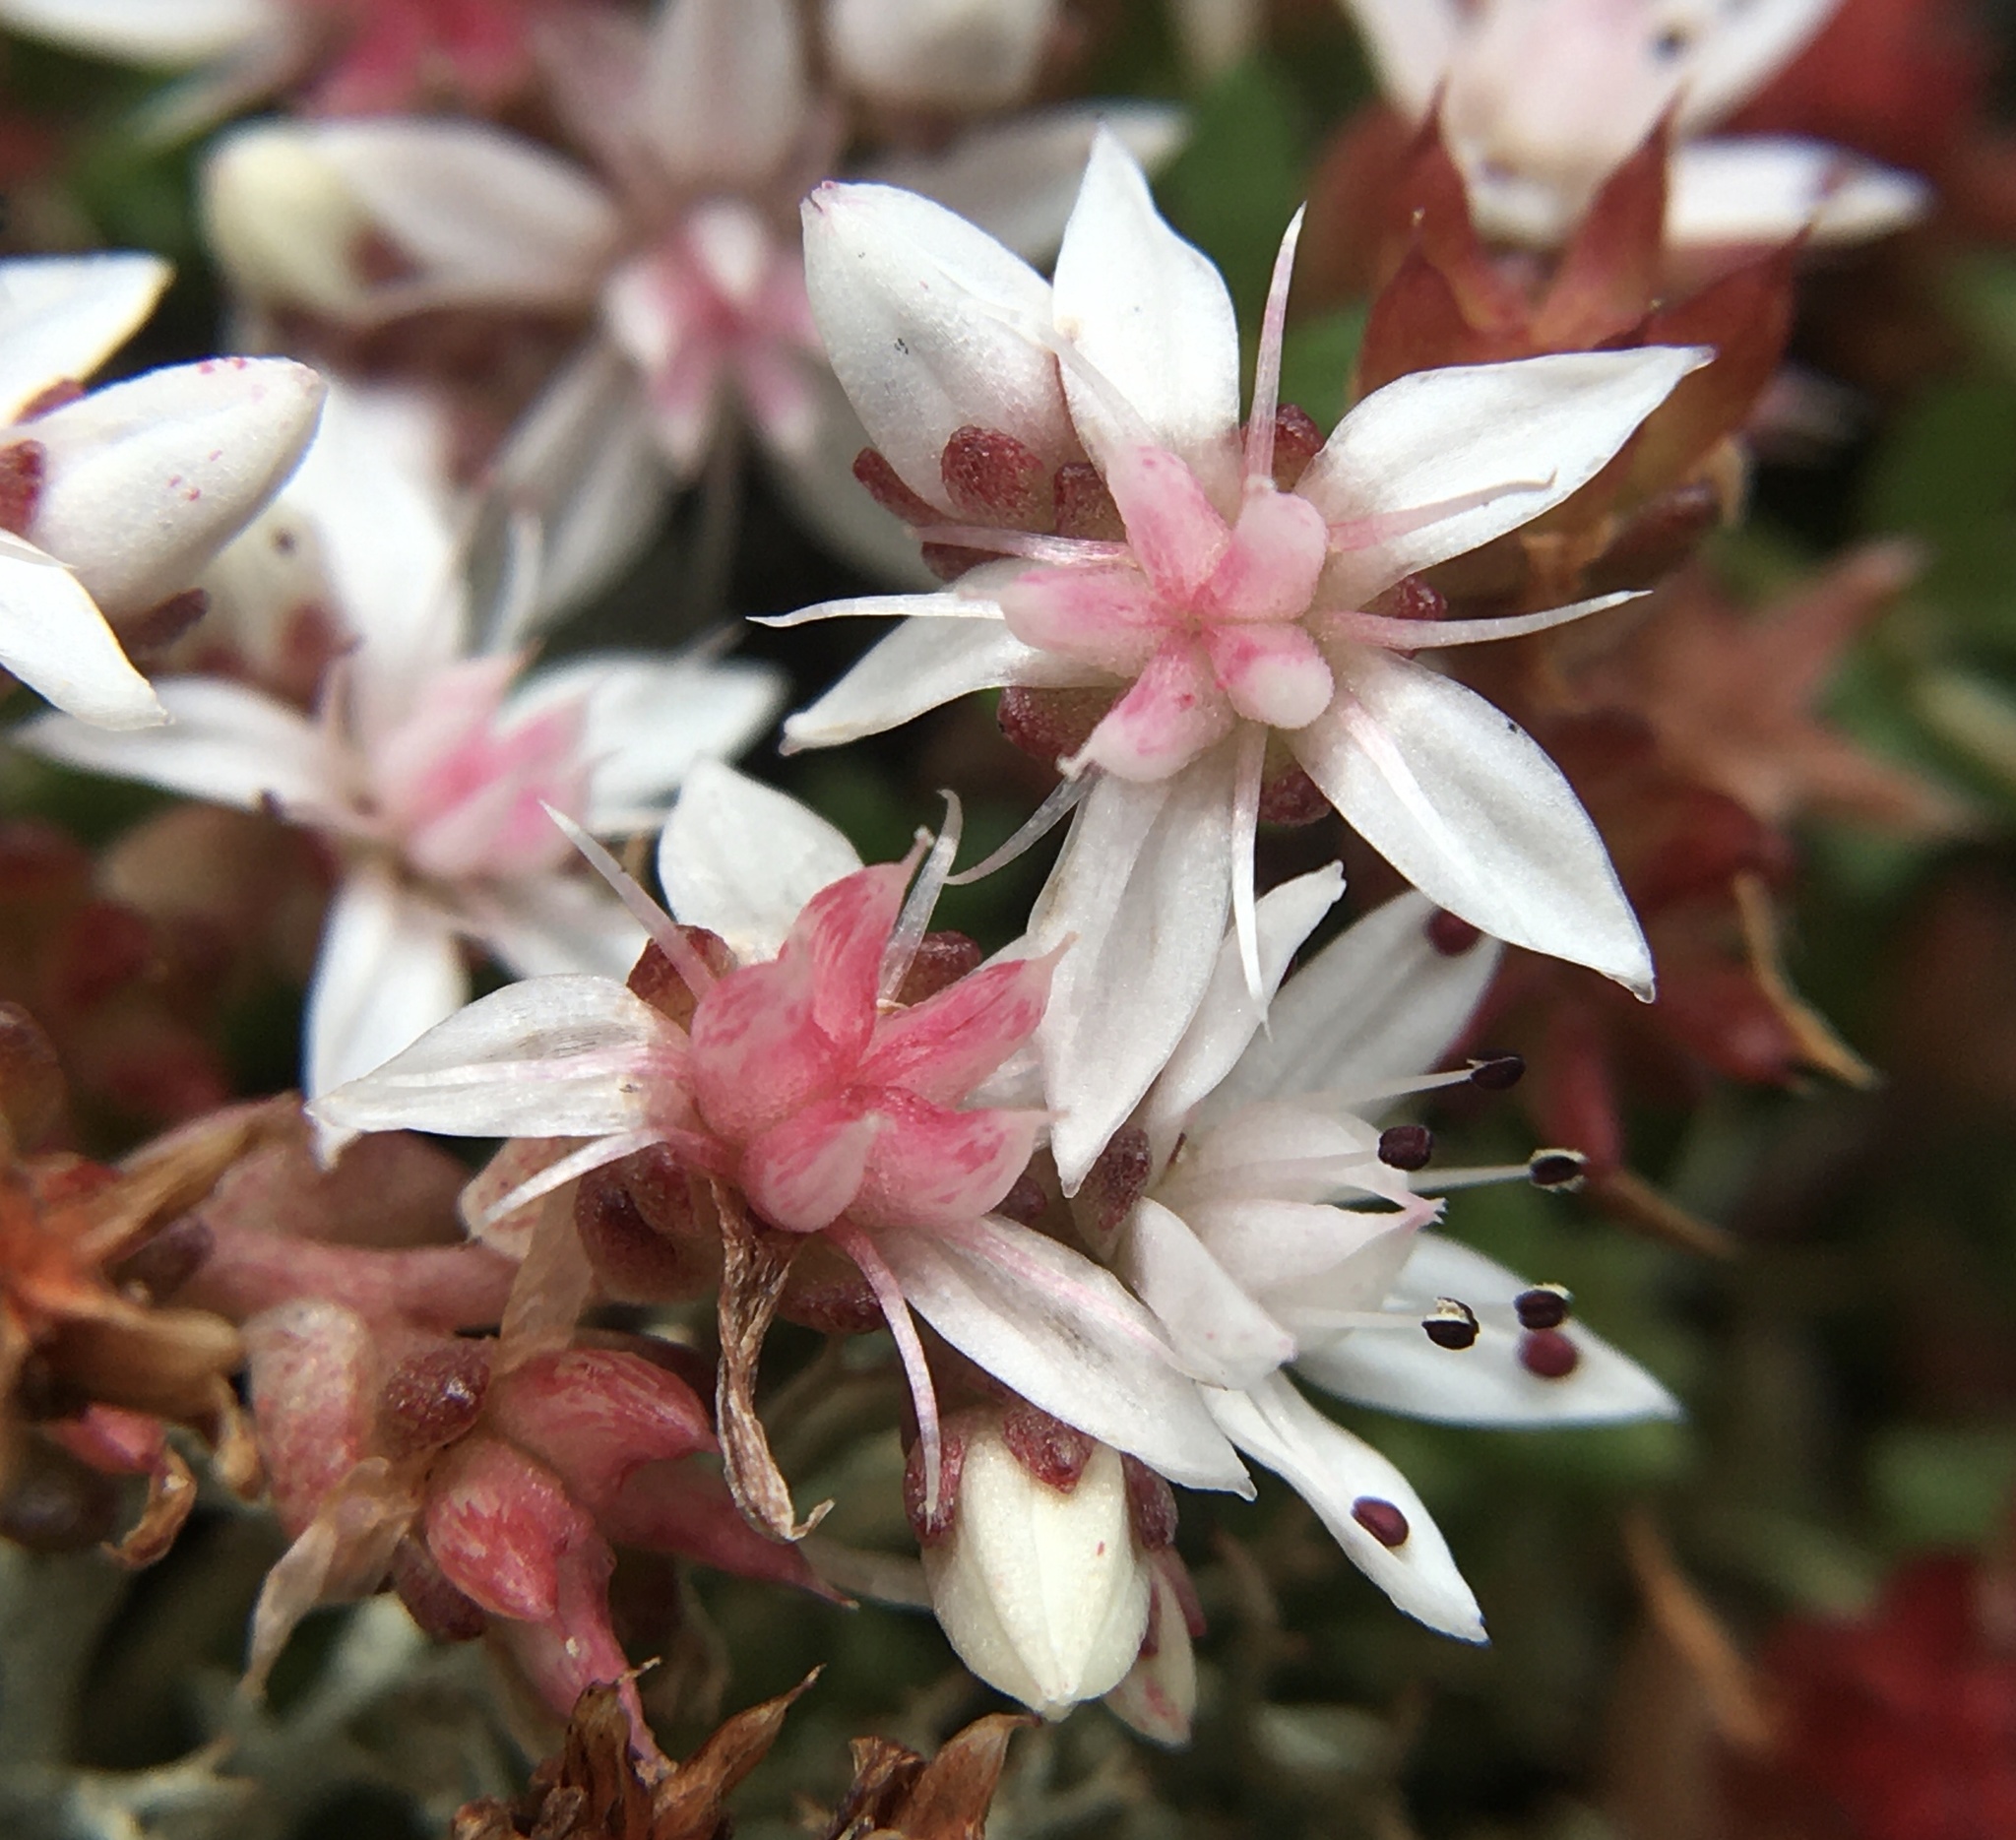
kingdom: Plantae
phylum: Tracheophyta
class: Magnoliopsida
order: Saxifragales
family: Crassulaceae
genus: Sedum
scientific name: Sedum anglicum
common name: English stonecrop
